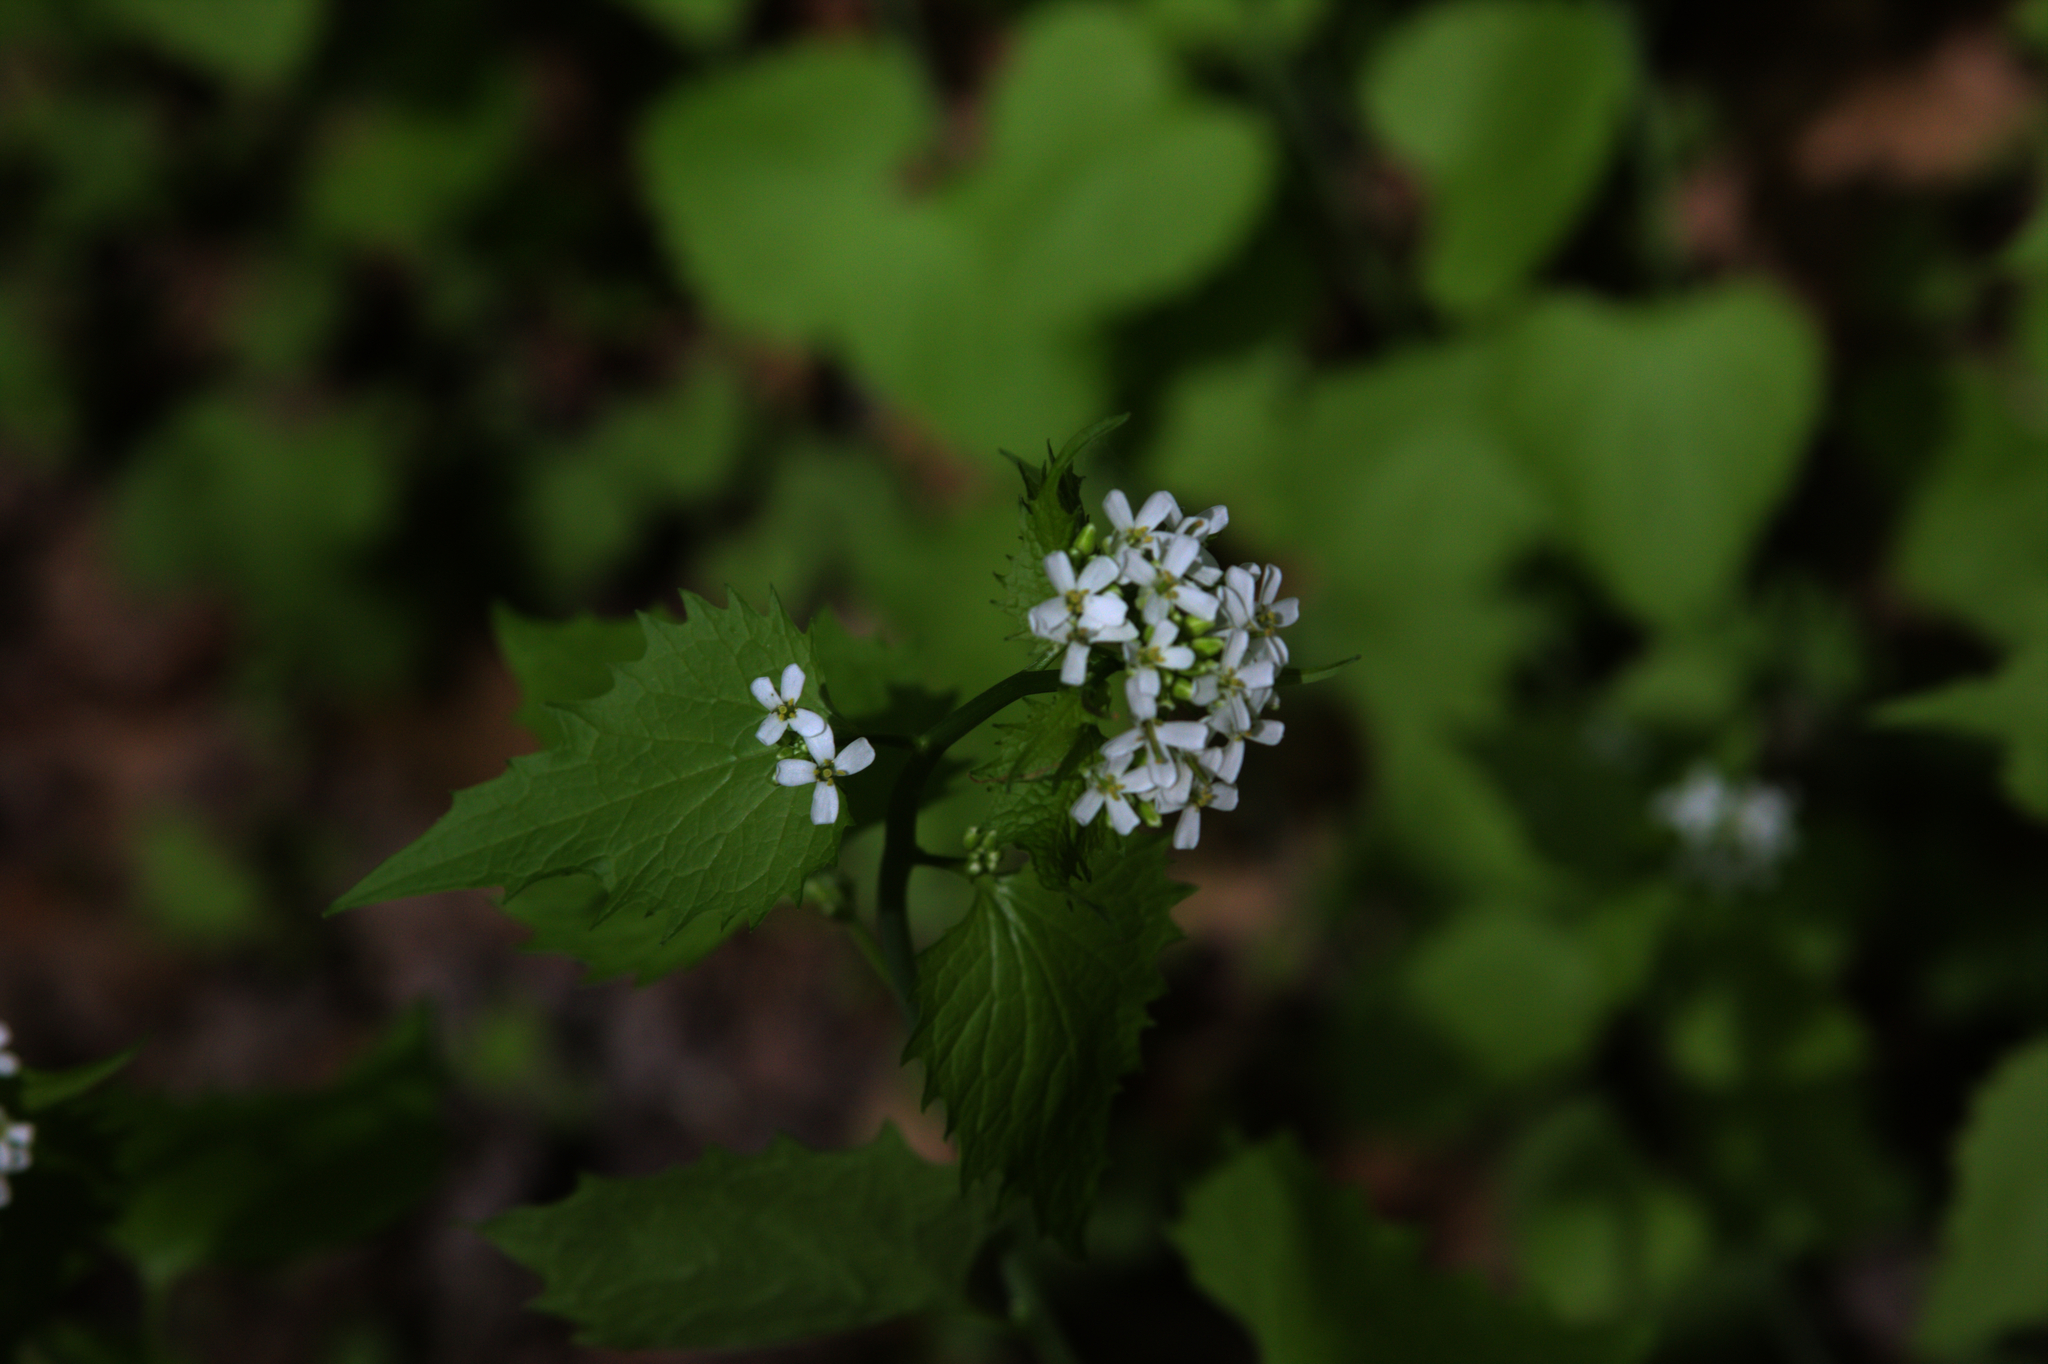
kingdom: Plantae
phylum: Tracheophyta
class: Magnoliopsida
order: Brassicales
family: Brassicaceae
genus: Alliaria
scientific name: Alliaria petiolata
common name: Garlic mustard
